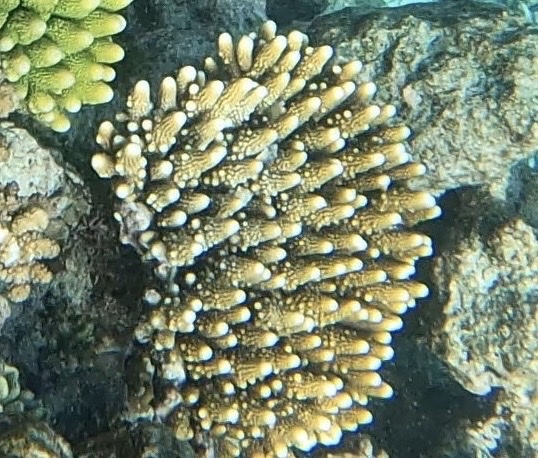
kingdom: Animalia
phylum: Cnidaria
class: Anthozoa
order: Scleractinia
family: Acroporidae
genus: Acropora
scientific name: Acropora humilis
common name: Finger coral
